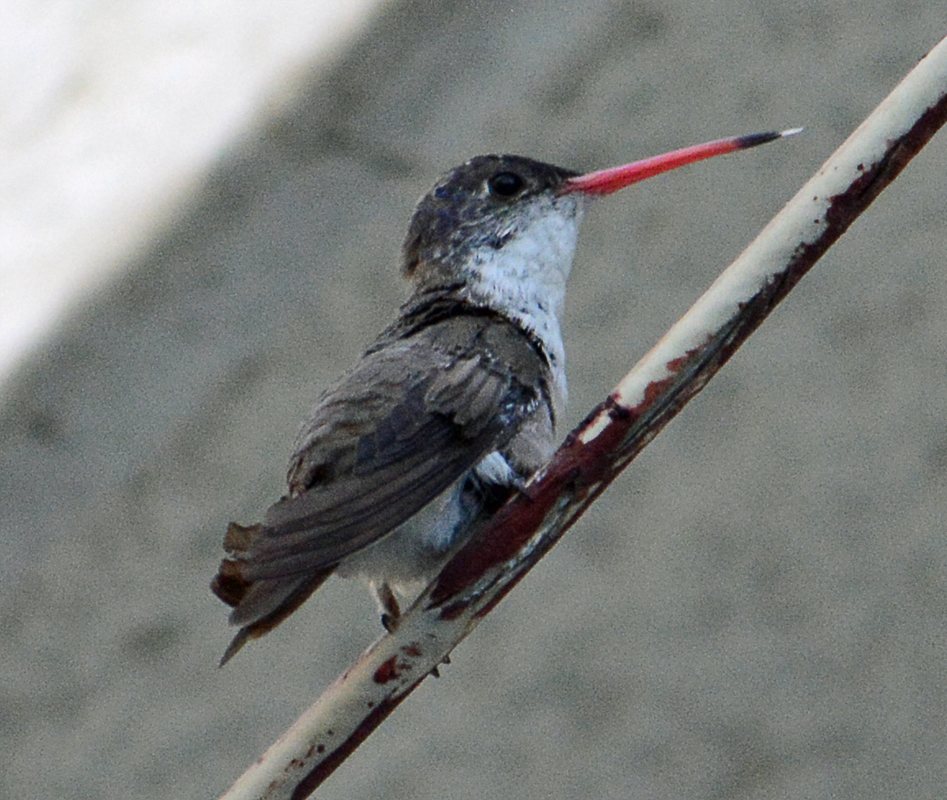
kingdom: Animalia
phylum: Chordata
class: Aves
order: Apodiformes
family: Trochilidae
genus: Leucolia
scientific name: Leucolia violiceps
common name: Violet-crowned hummingbird
